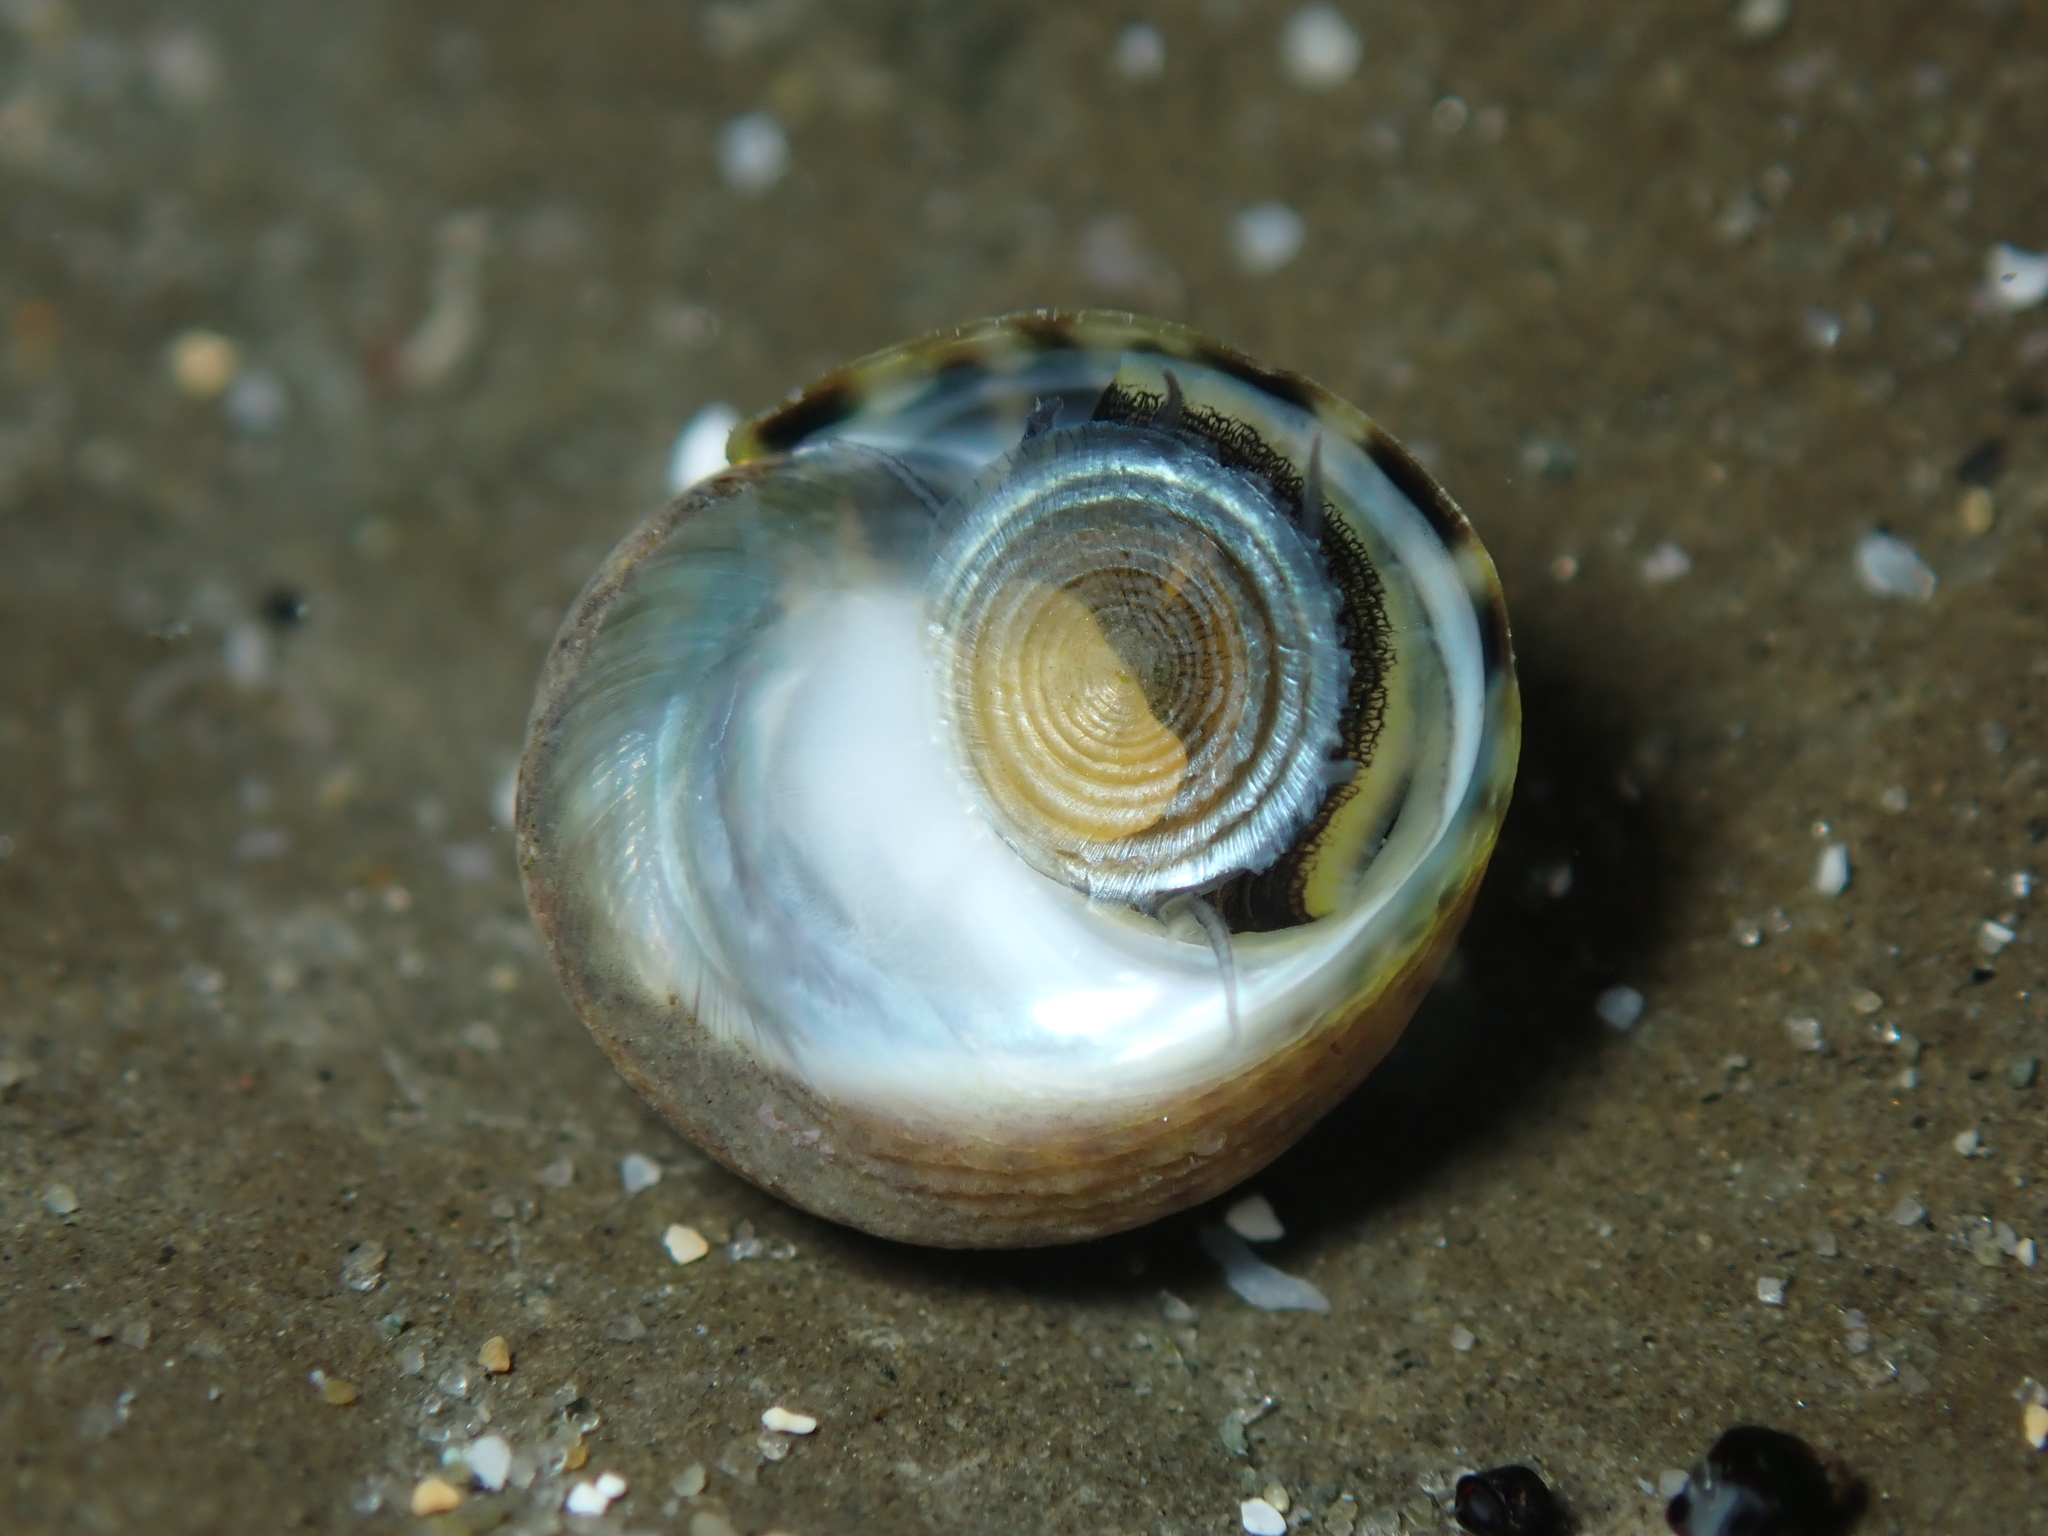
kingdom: Animalia
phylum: Mollusca
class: Gastropoda
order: Trochida
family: Trochidae
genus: Diloma
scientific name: Diloma coracinum
